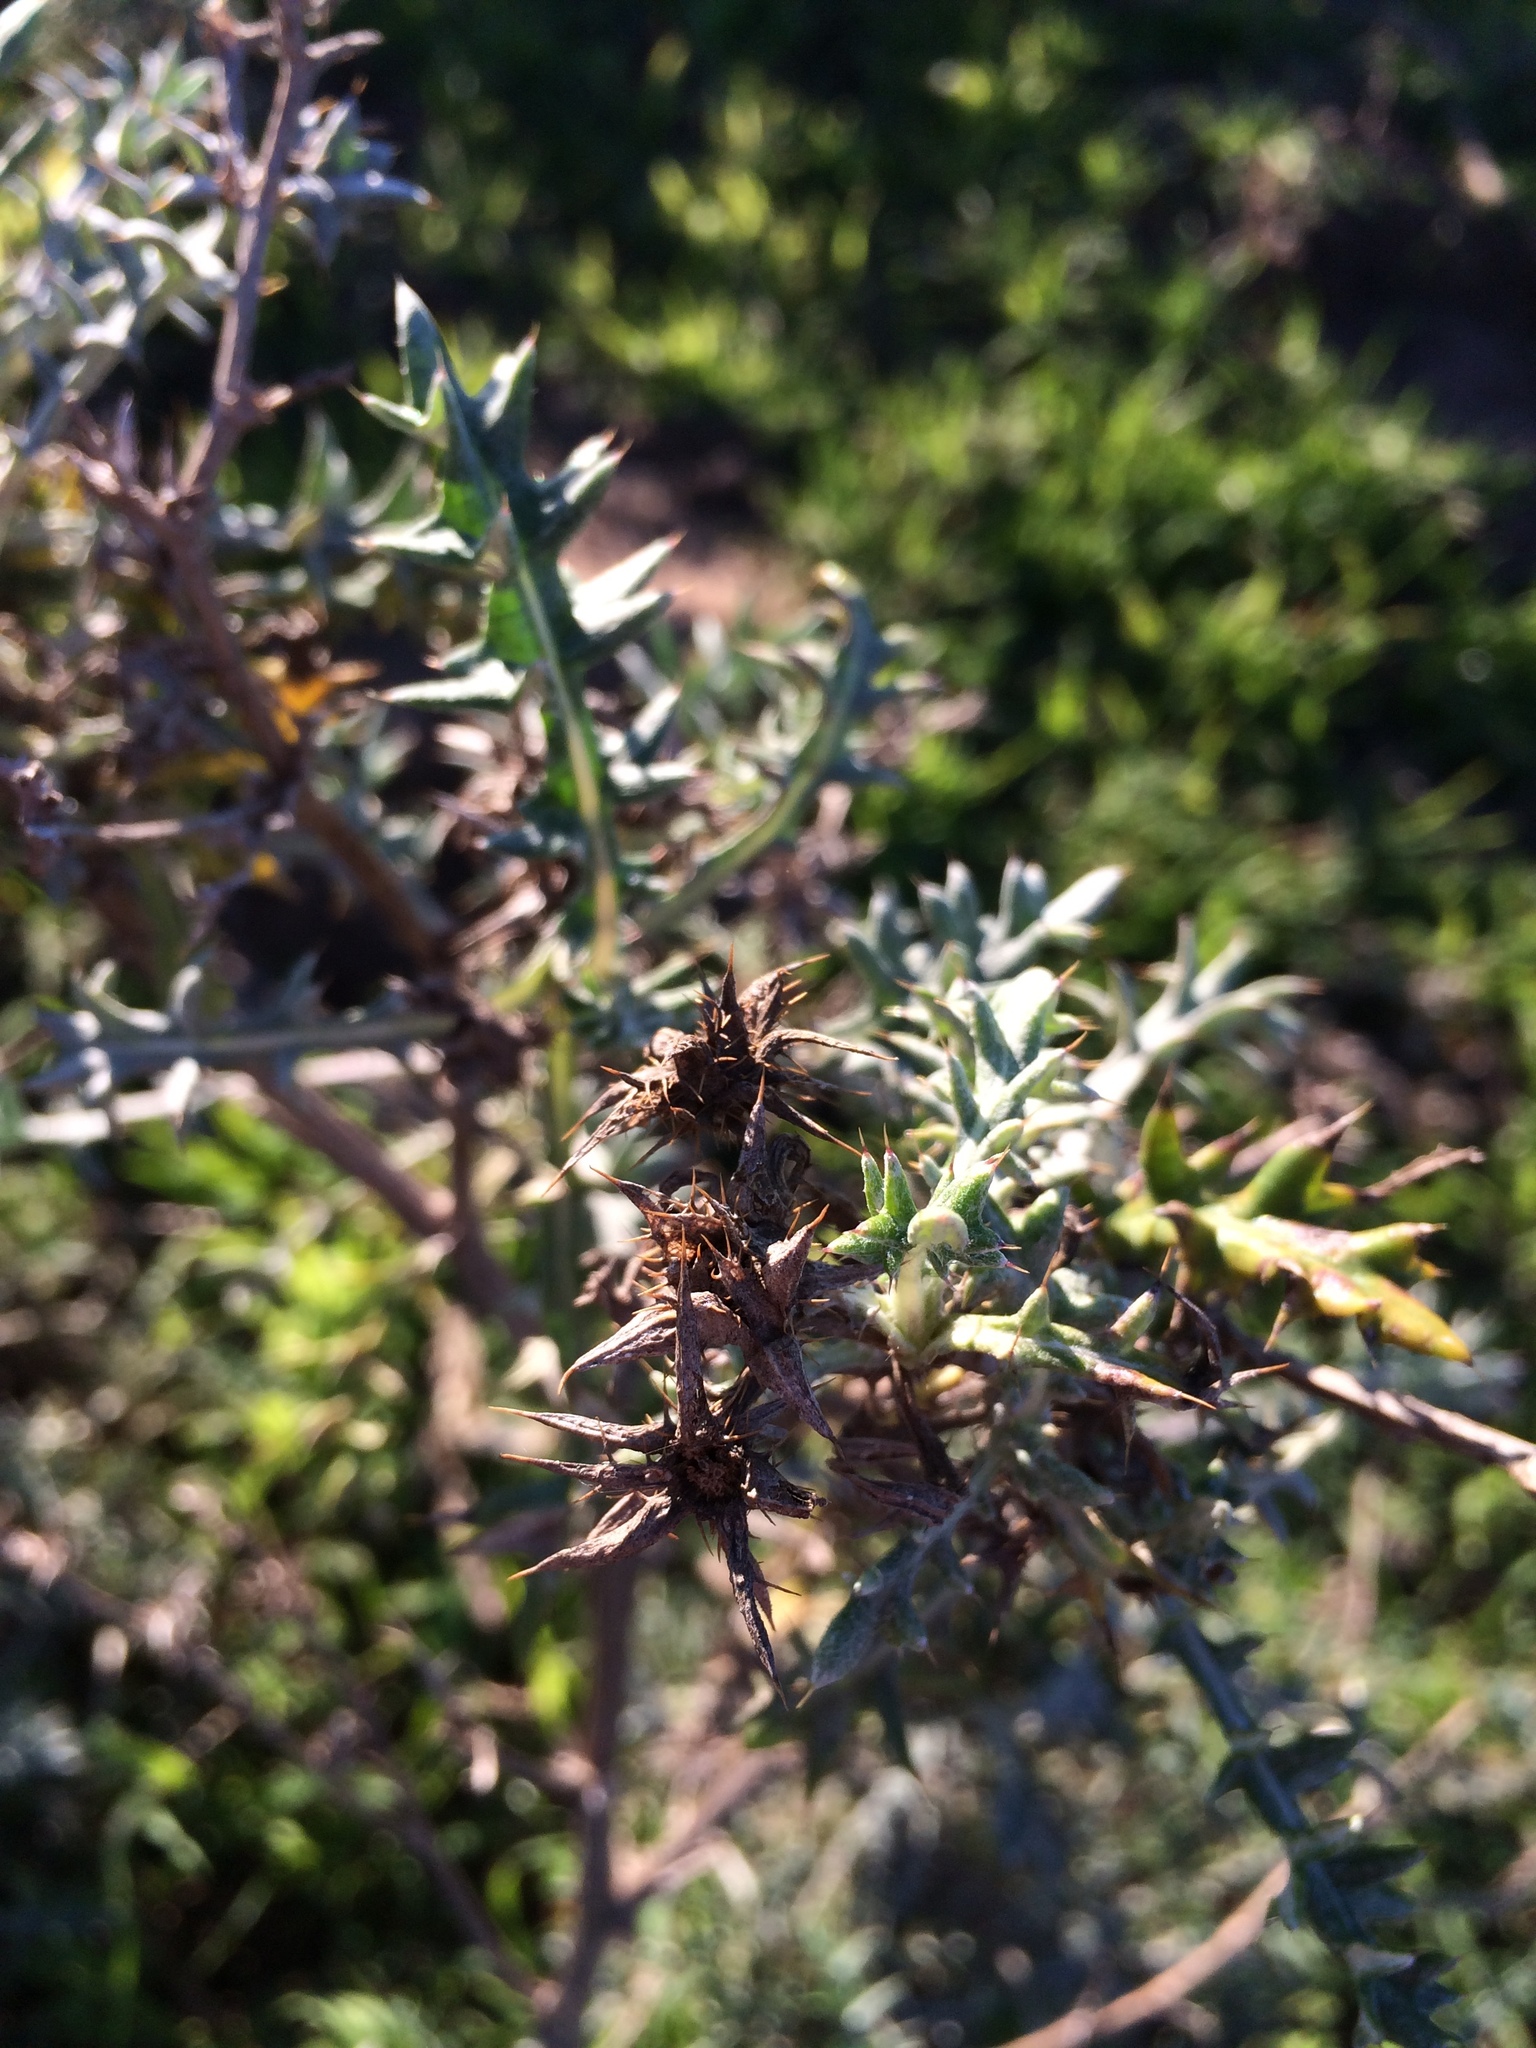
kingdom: Plantae
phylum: Tracheophyta
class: Magnoliopsida
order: Asterales
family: Asteraceae
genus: Berkheya
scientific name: Berkheya rigida
